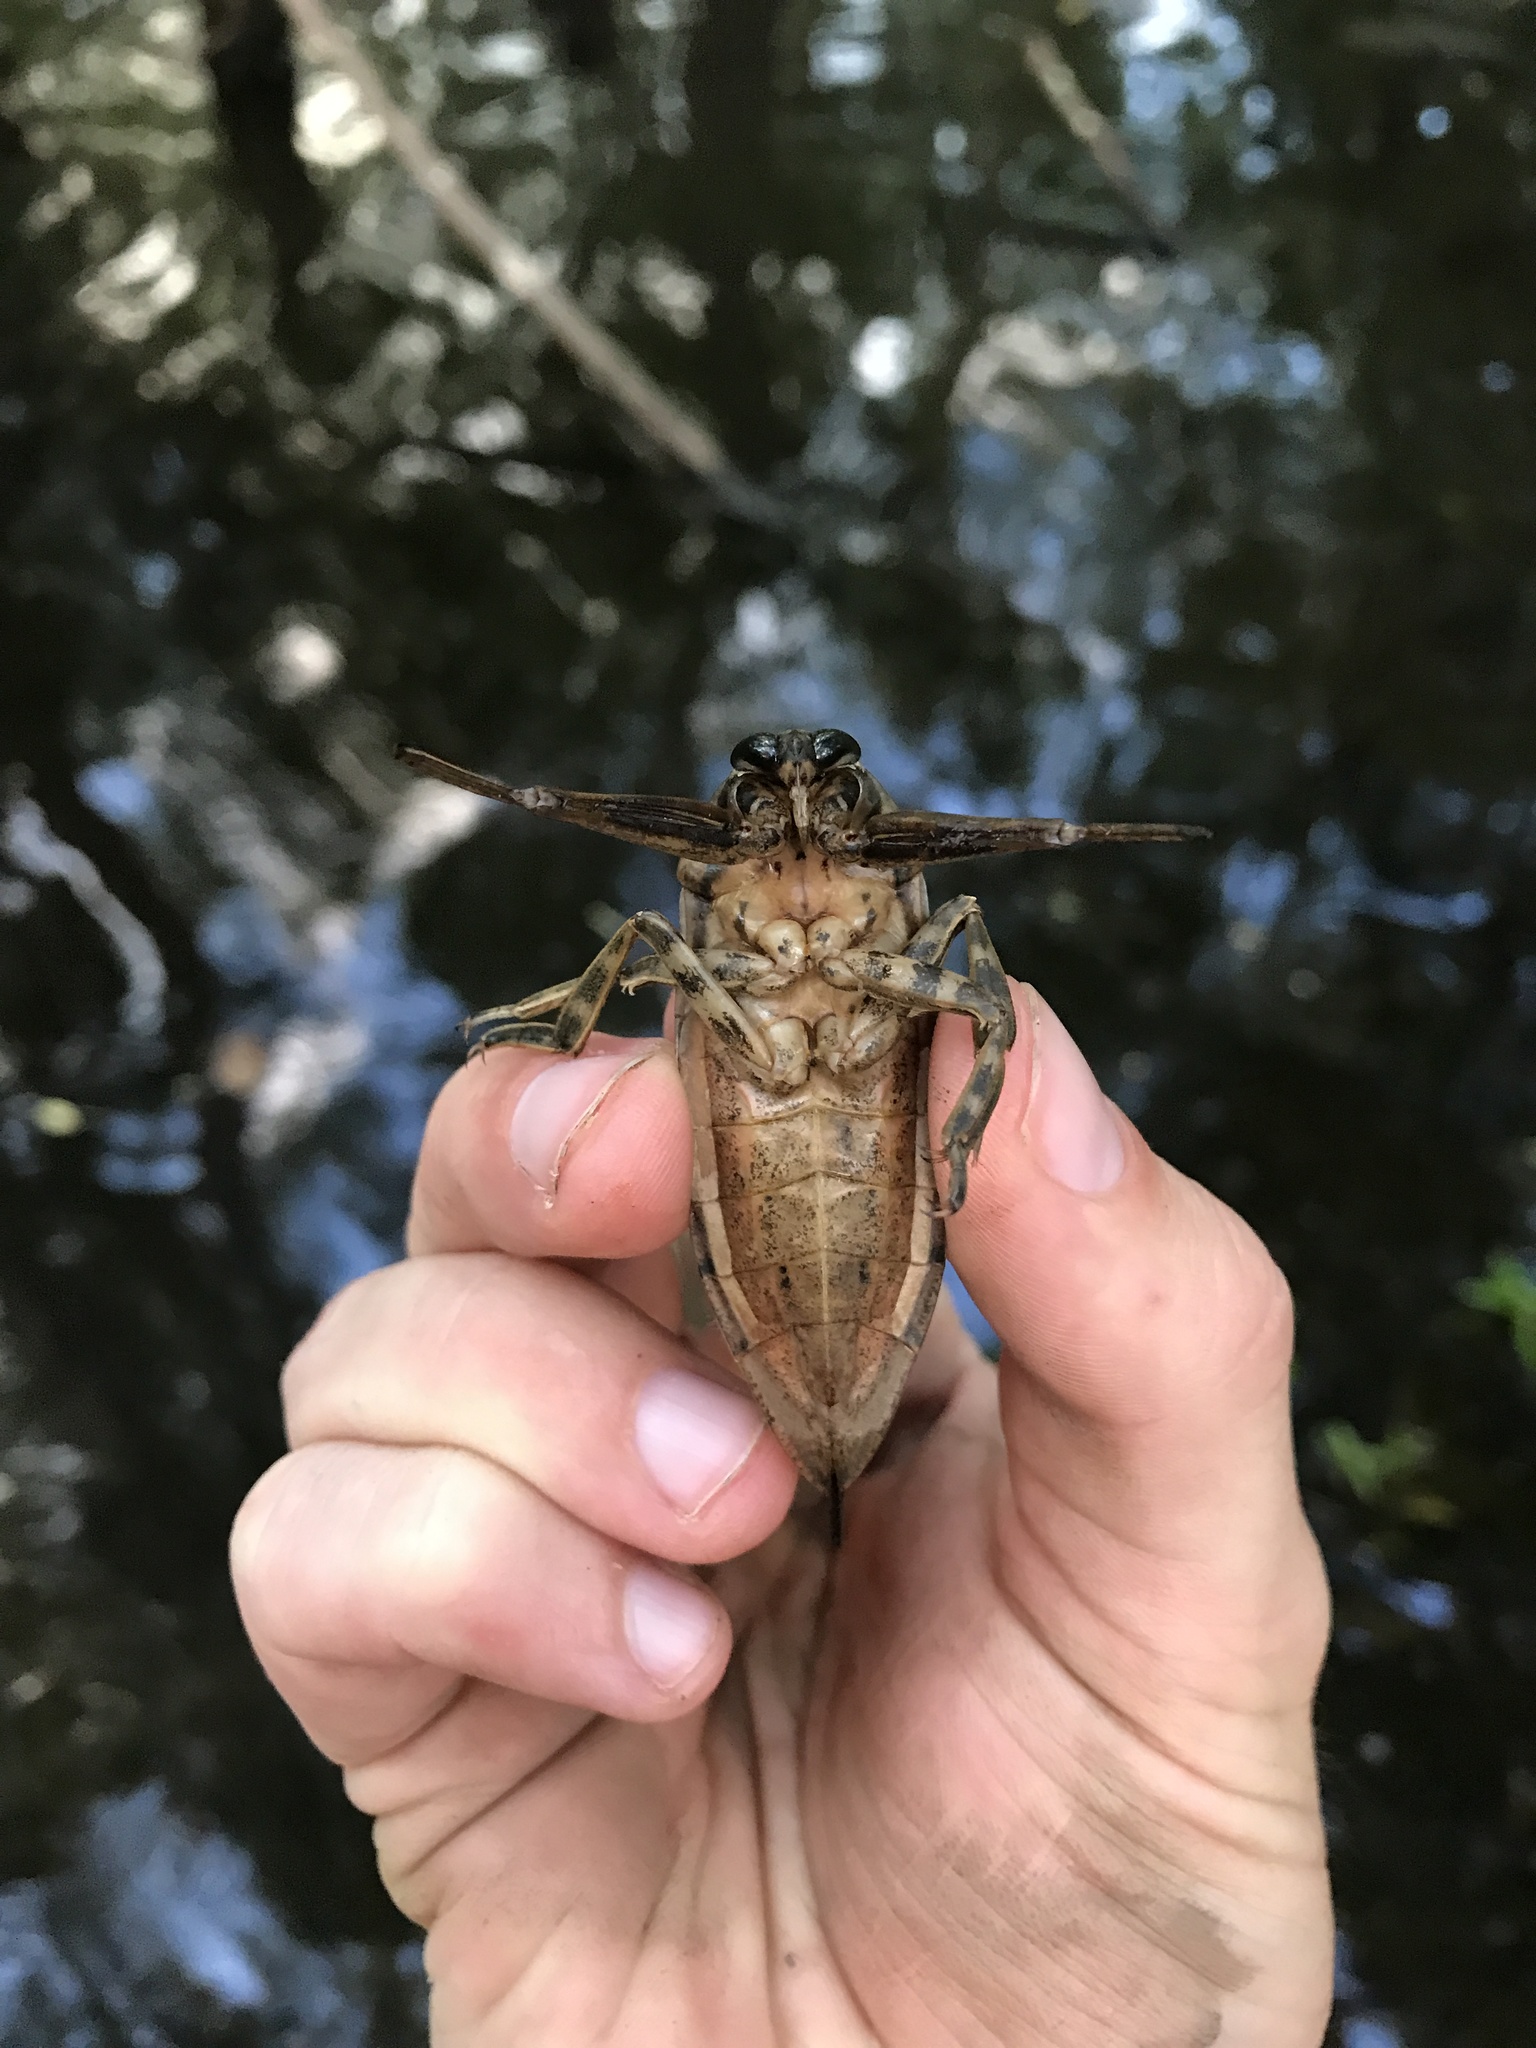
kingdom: Animalia
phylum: Arthropoda
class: Insecta
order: Hemiptera
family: Belostomatidae
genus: Lethocerus
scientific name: Lethocerus uhleri
